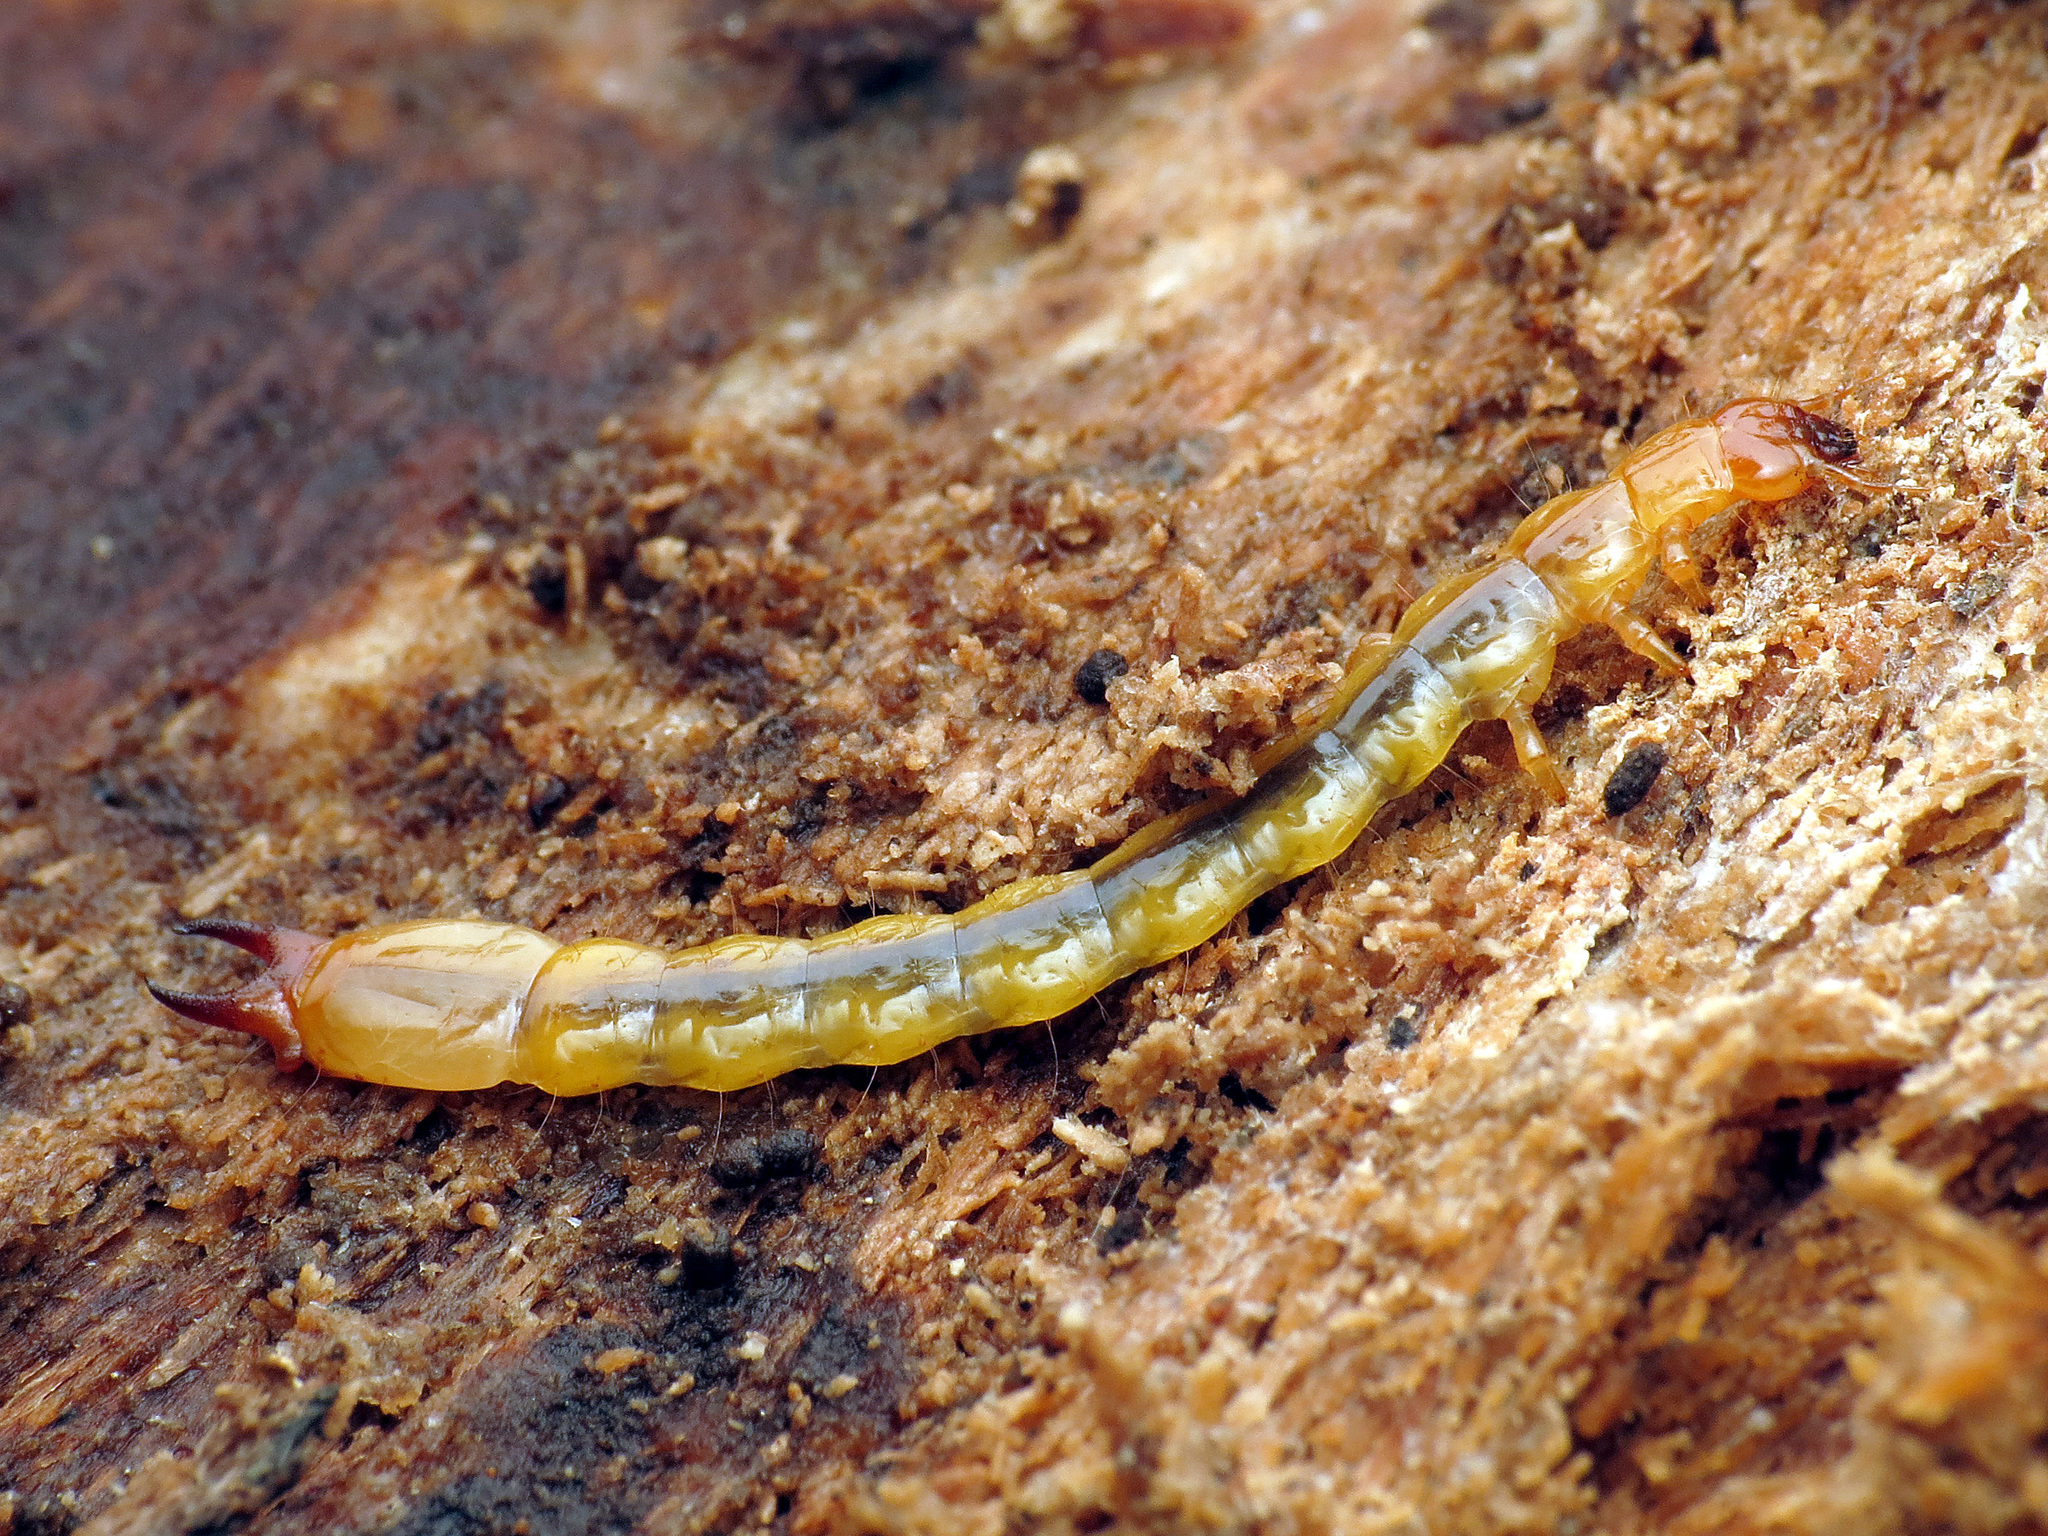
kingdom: Animalia
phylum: Arthropoda
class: Insecta
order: Coleoptera
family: Pyrochroidae
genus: Dendroides
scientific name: Dendroides canadensis
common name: Canada fire-colored beetle
